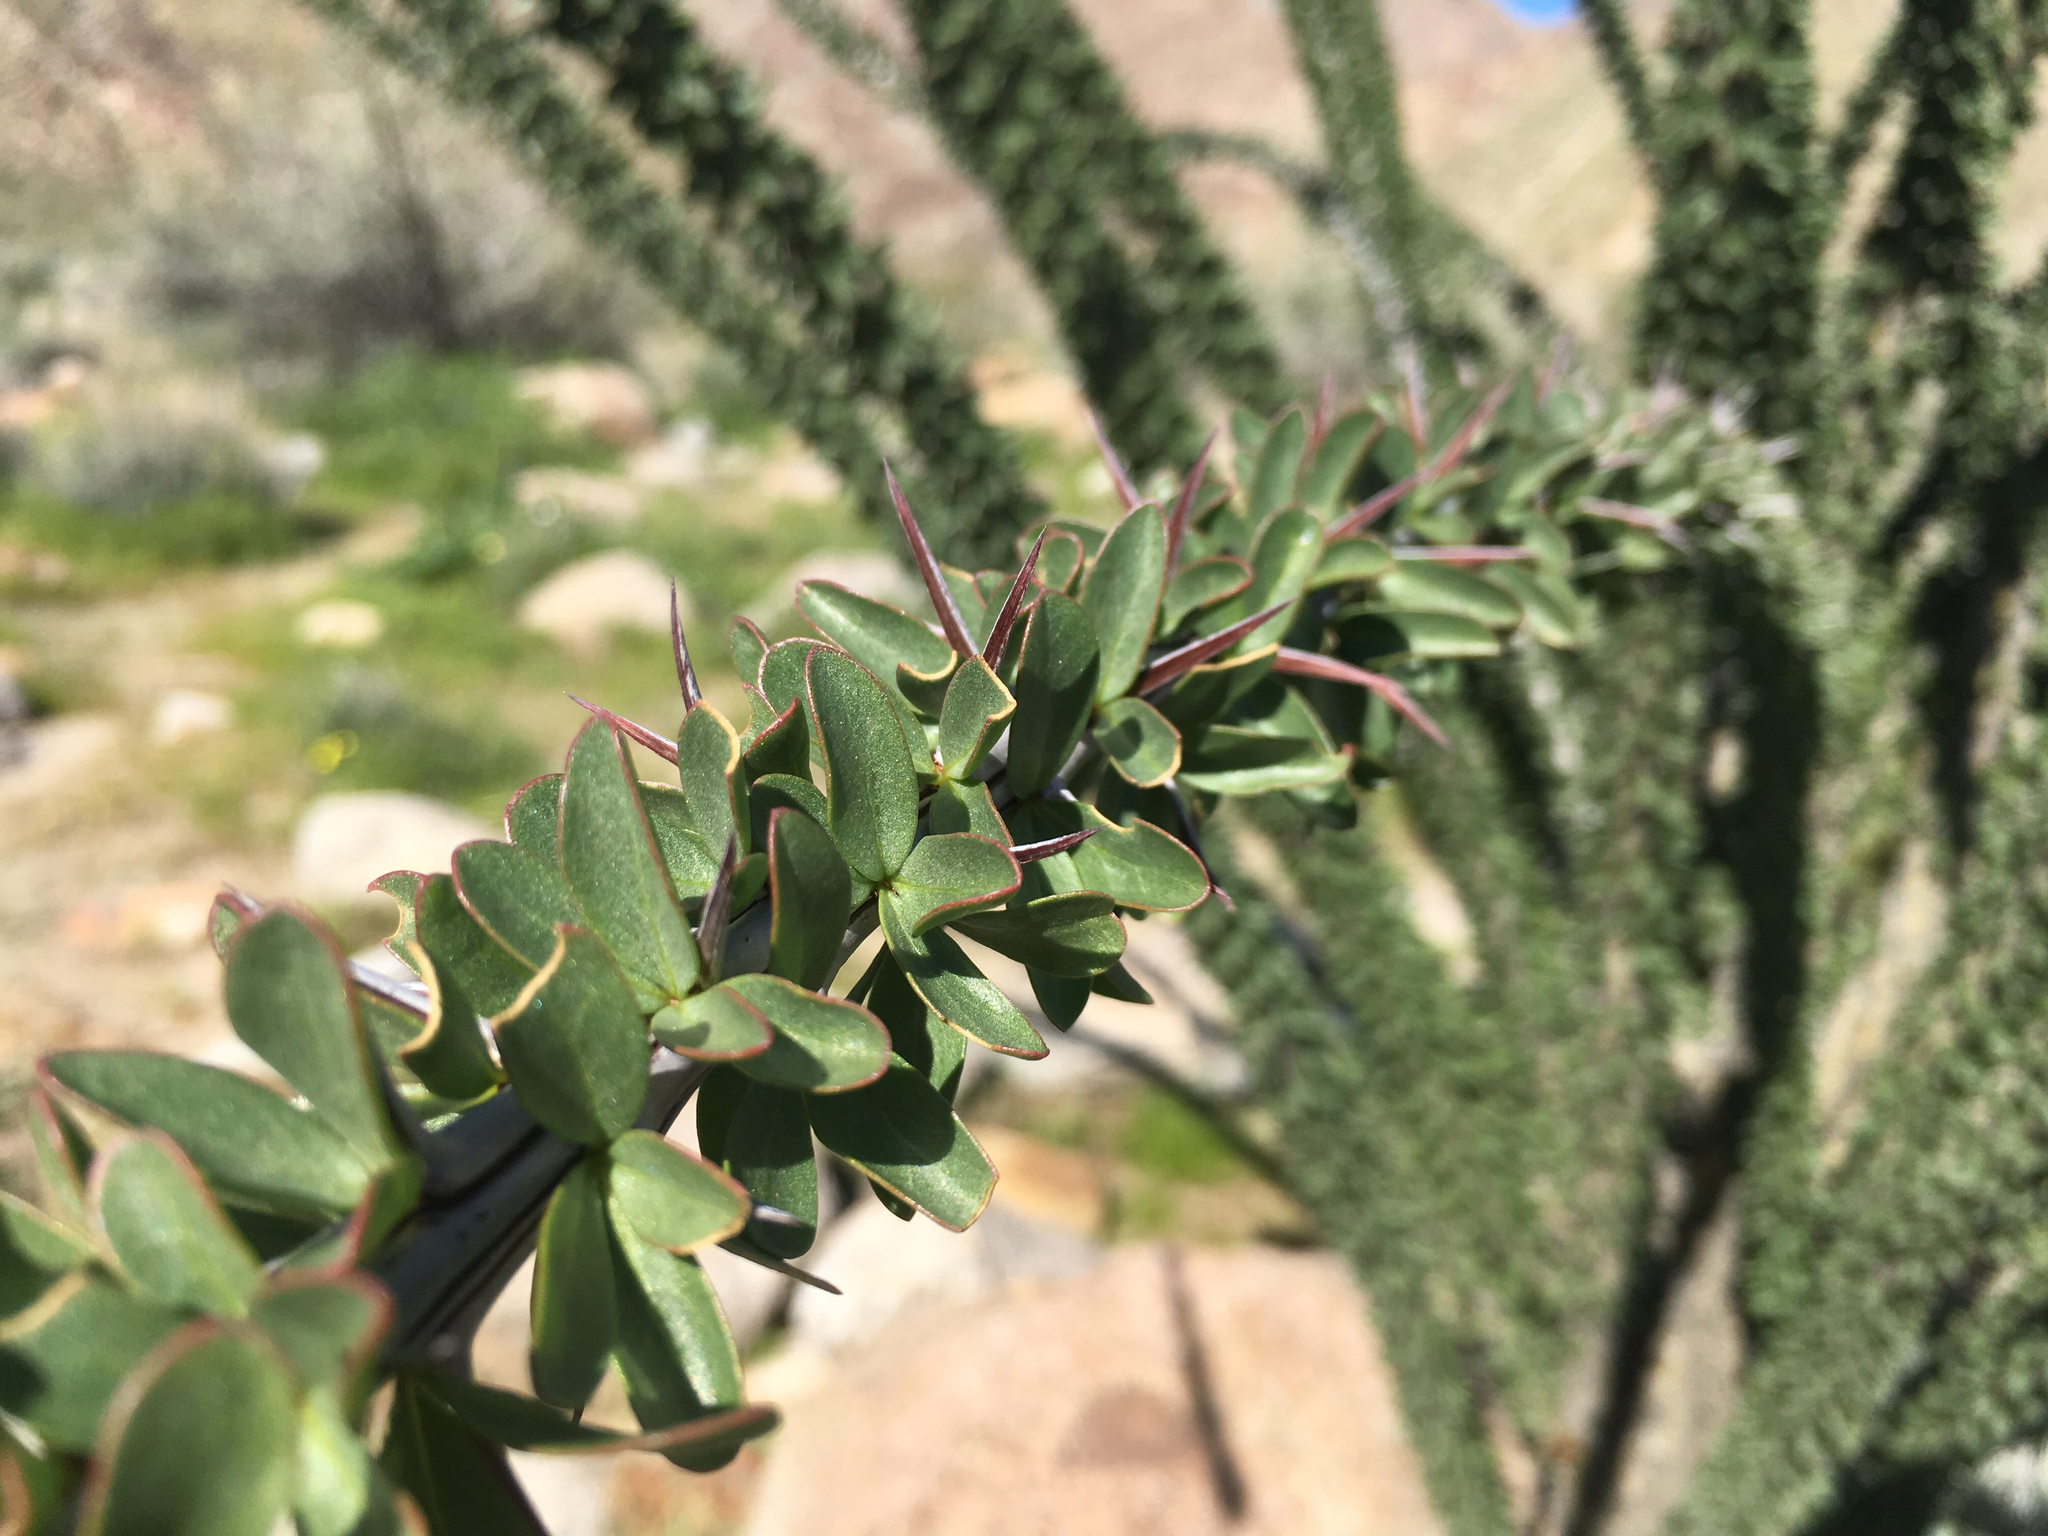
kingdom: Plantae
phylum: Tracheophyta
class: Magnoliopsida
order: Ericales
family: Fouquieriaceae
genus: Fouquieria
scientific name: Fouquieria splendens
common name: Vine-cactus
